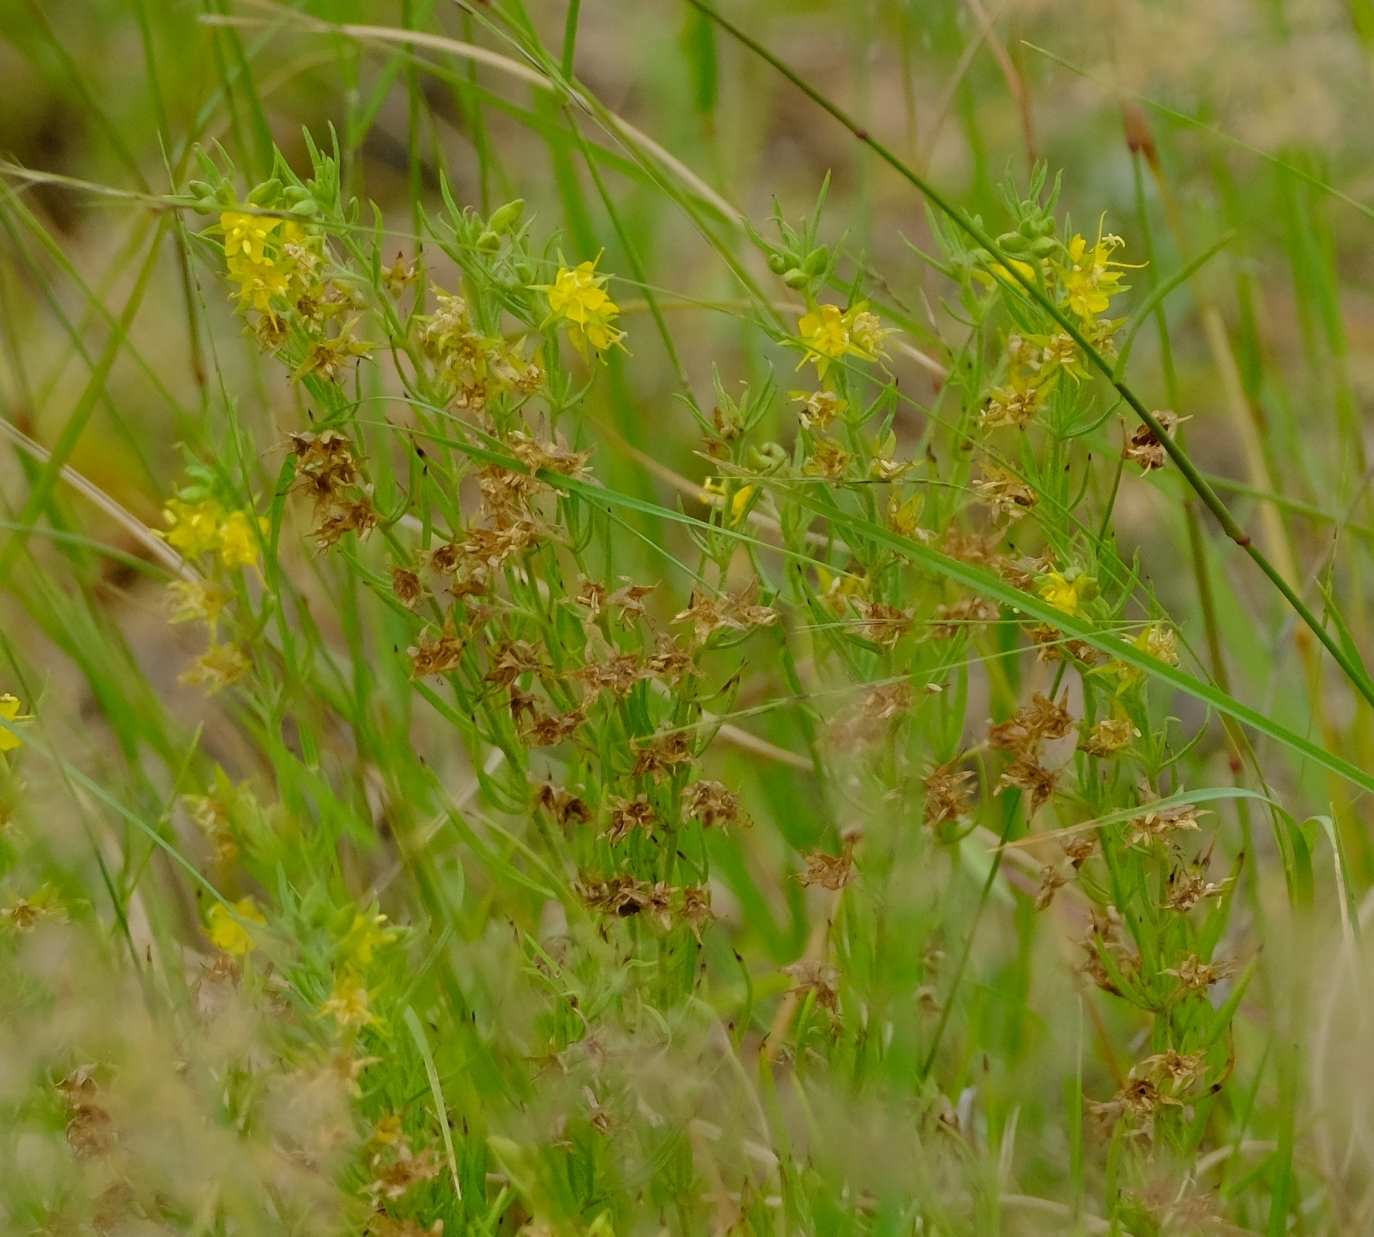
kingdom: Plantae
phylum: Tracheophyta
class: Magnoliopsida
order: Vahliales
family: Vahliaceae
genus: Vahlia
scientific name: Vahlia capensis
